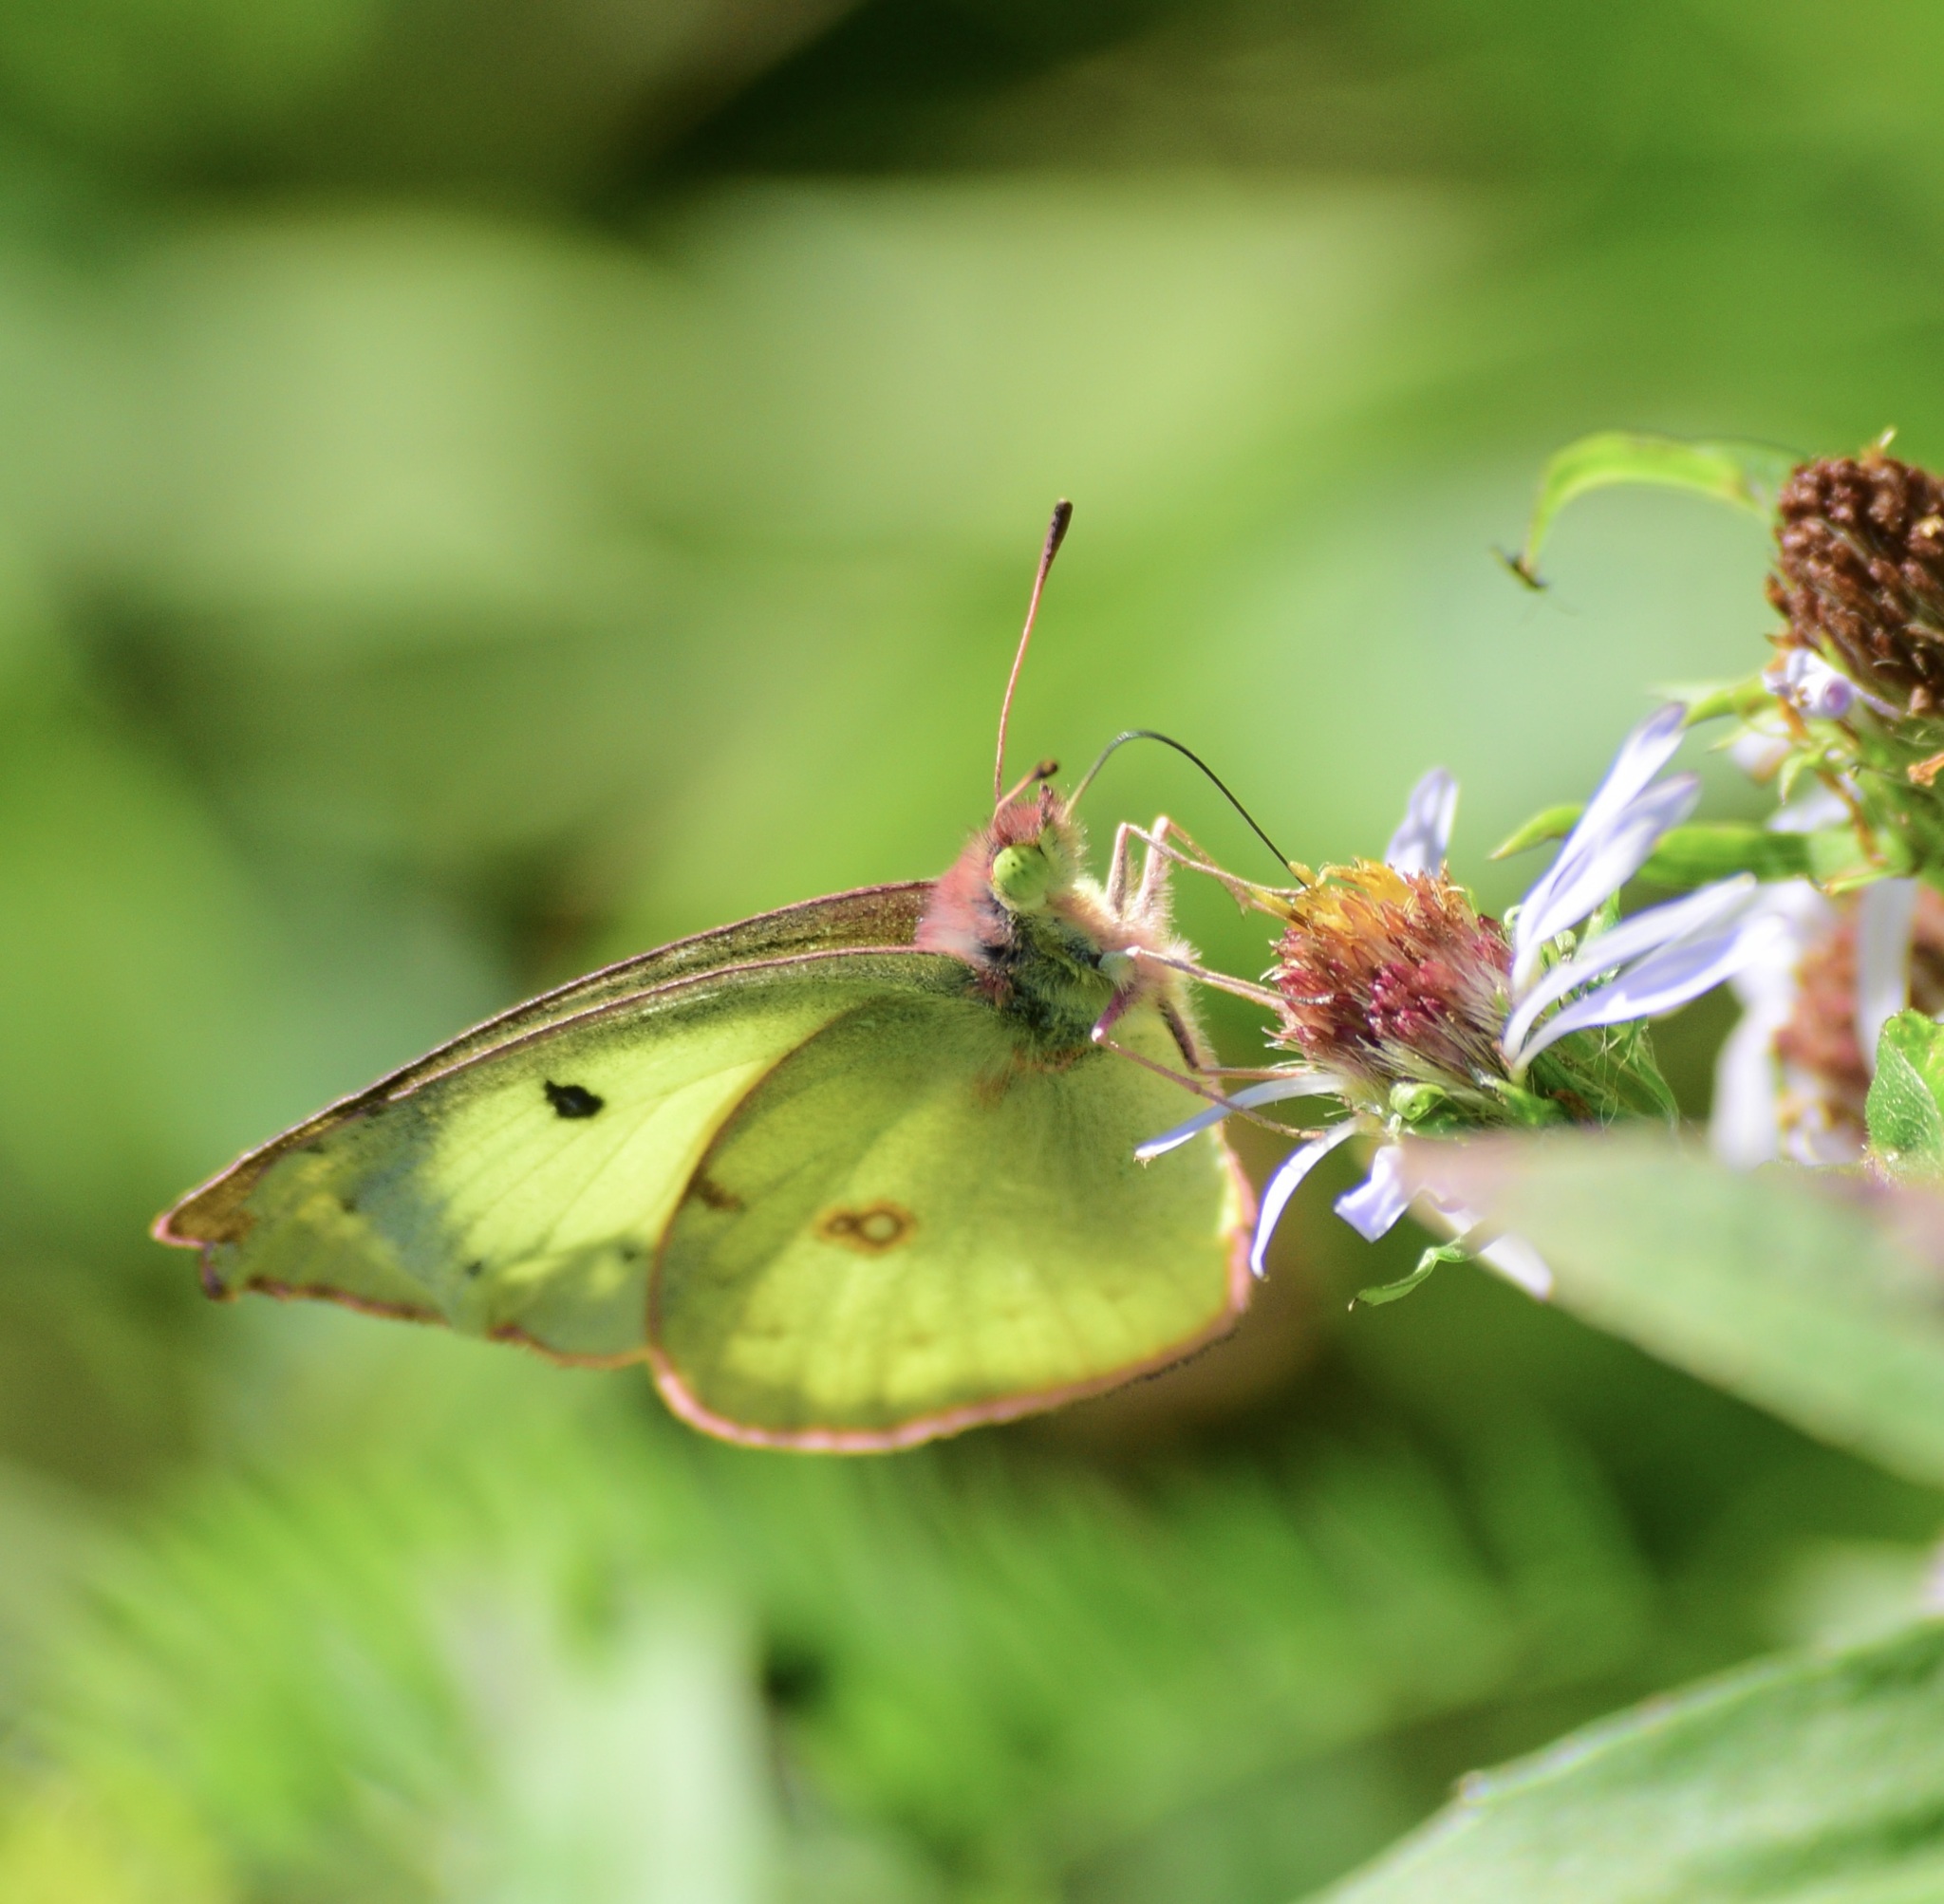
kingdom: Animalia
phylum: Arthropoda
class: Insecta
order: Lepidoptera
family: Pieridae
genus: Colias
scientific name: Colias philodice
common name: Clouded sulphur
